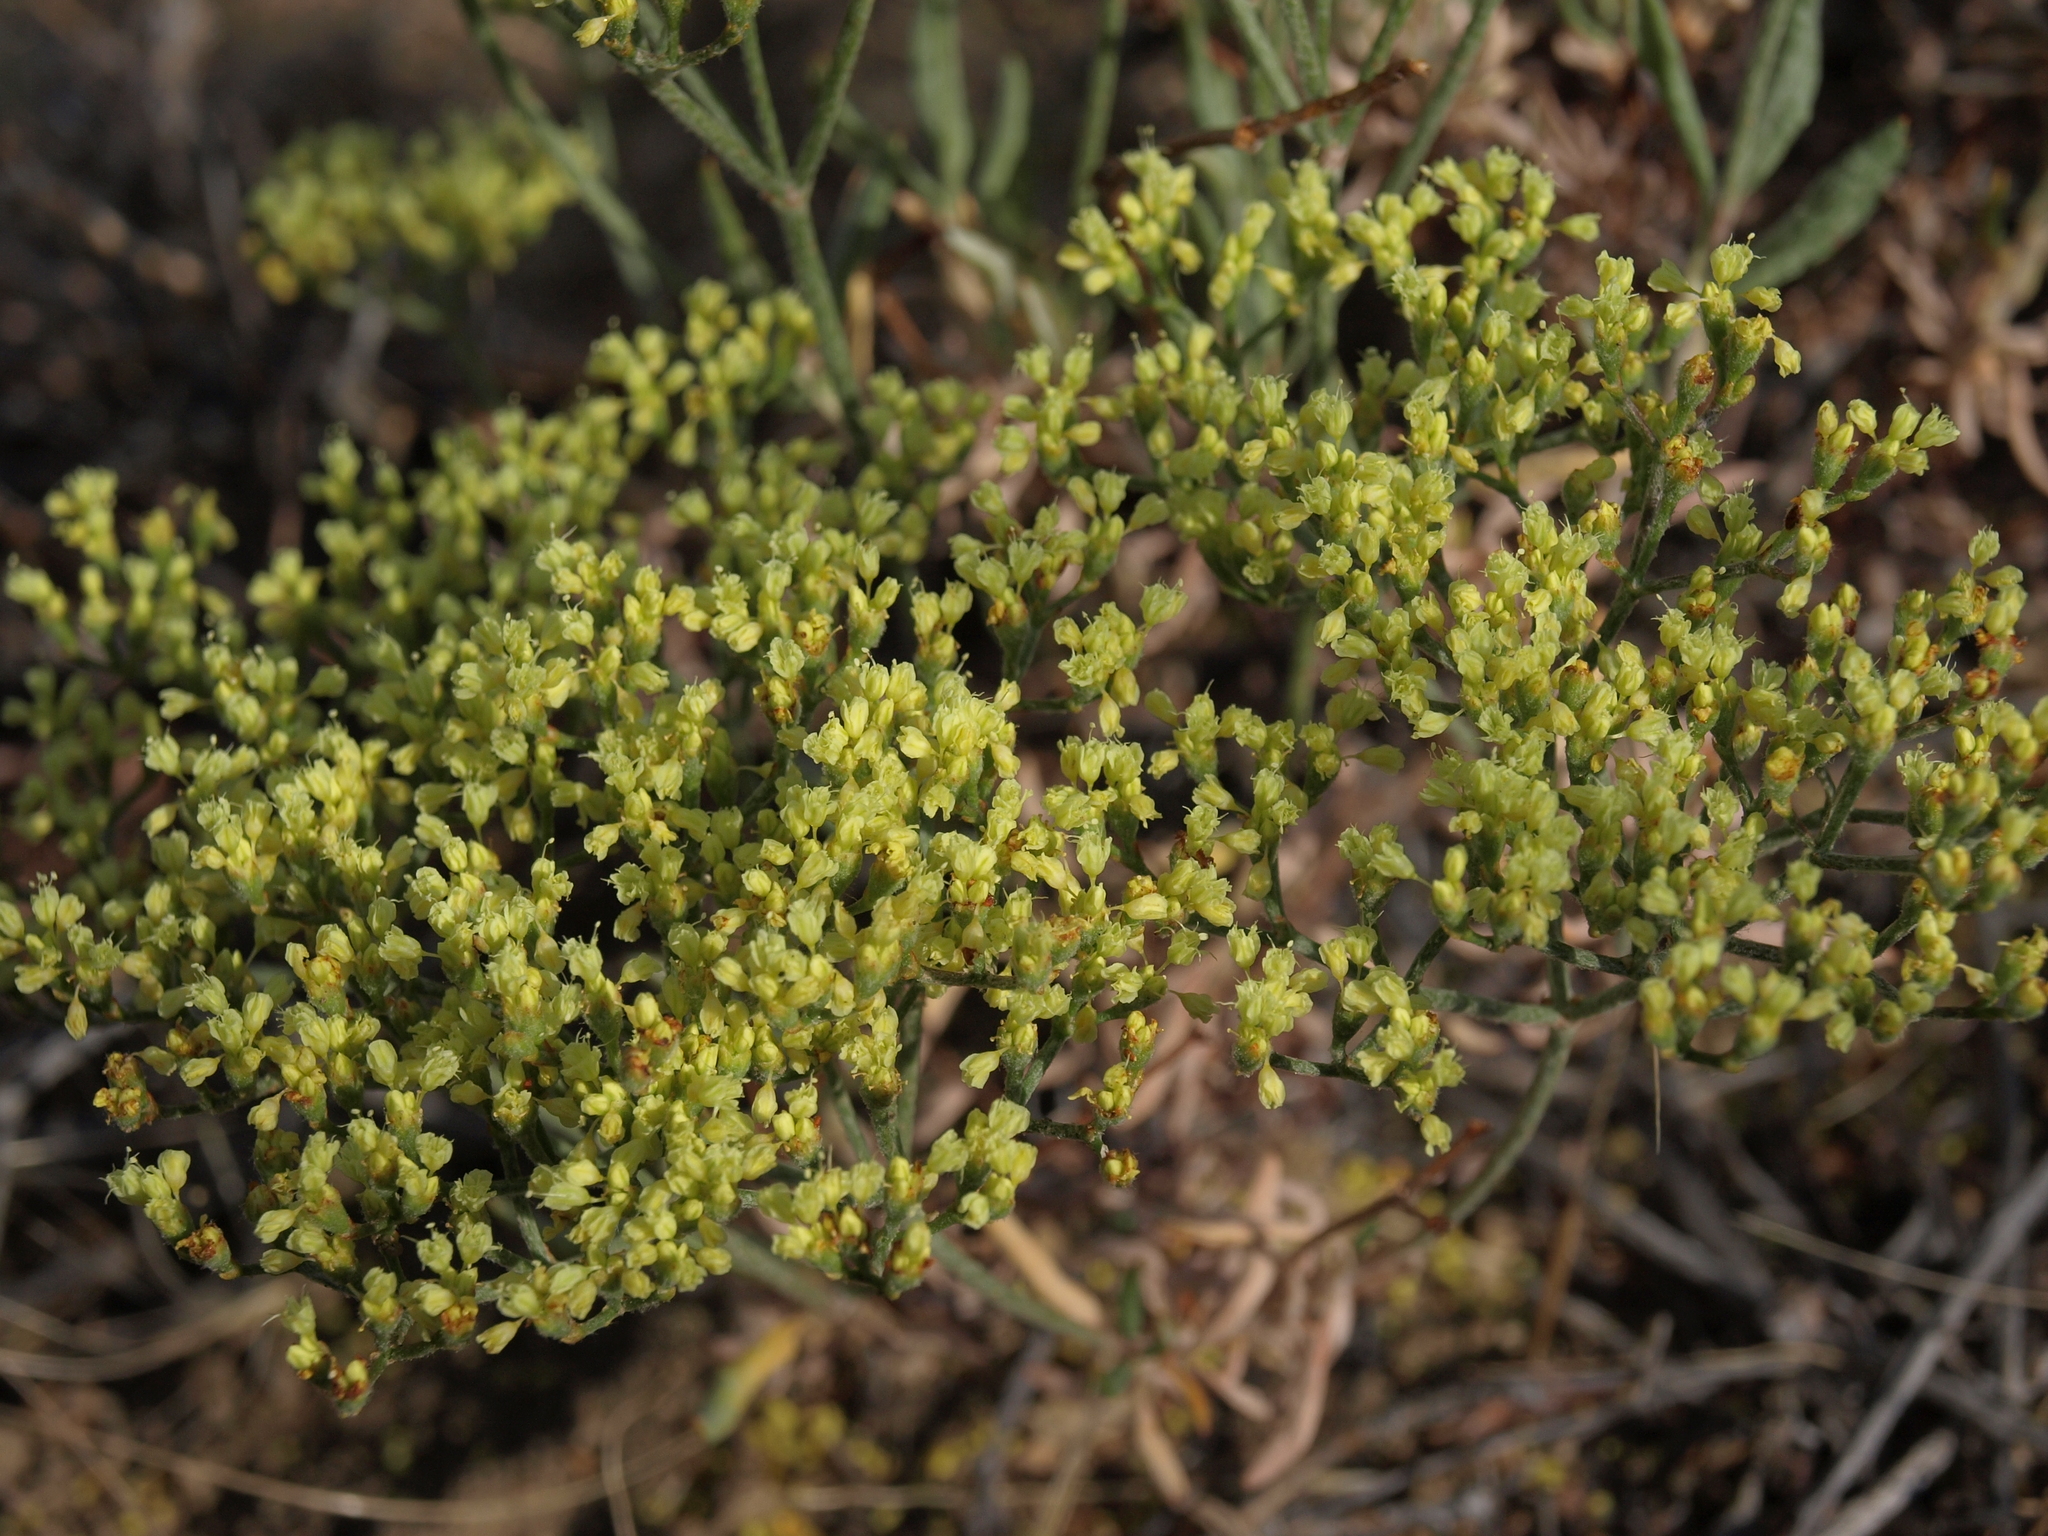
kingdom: Plantae
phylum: Tracheophyta
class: Magnoliopsida
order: Caryophyllales
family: Polygonaceae
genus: Eriogonum
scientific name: Eriogonum microtheca
